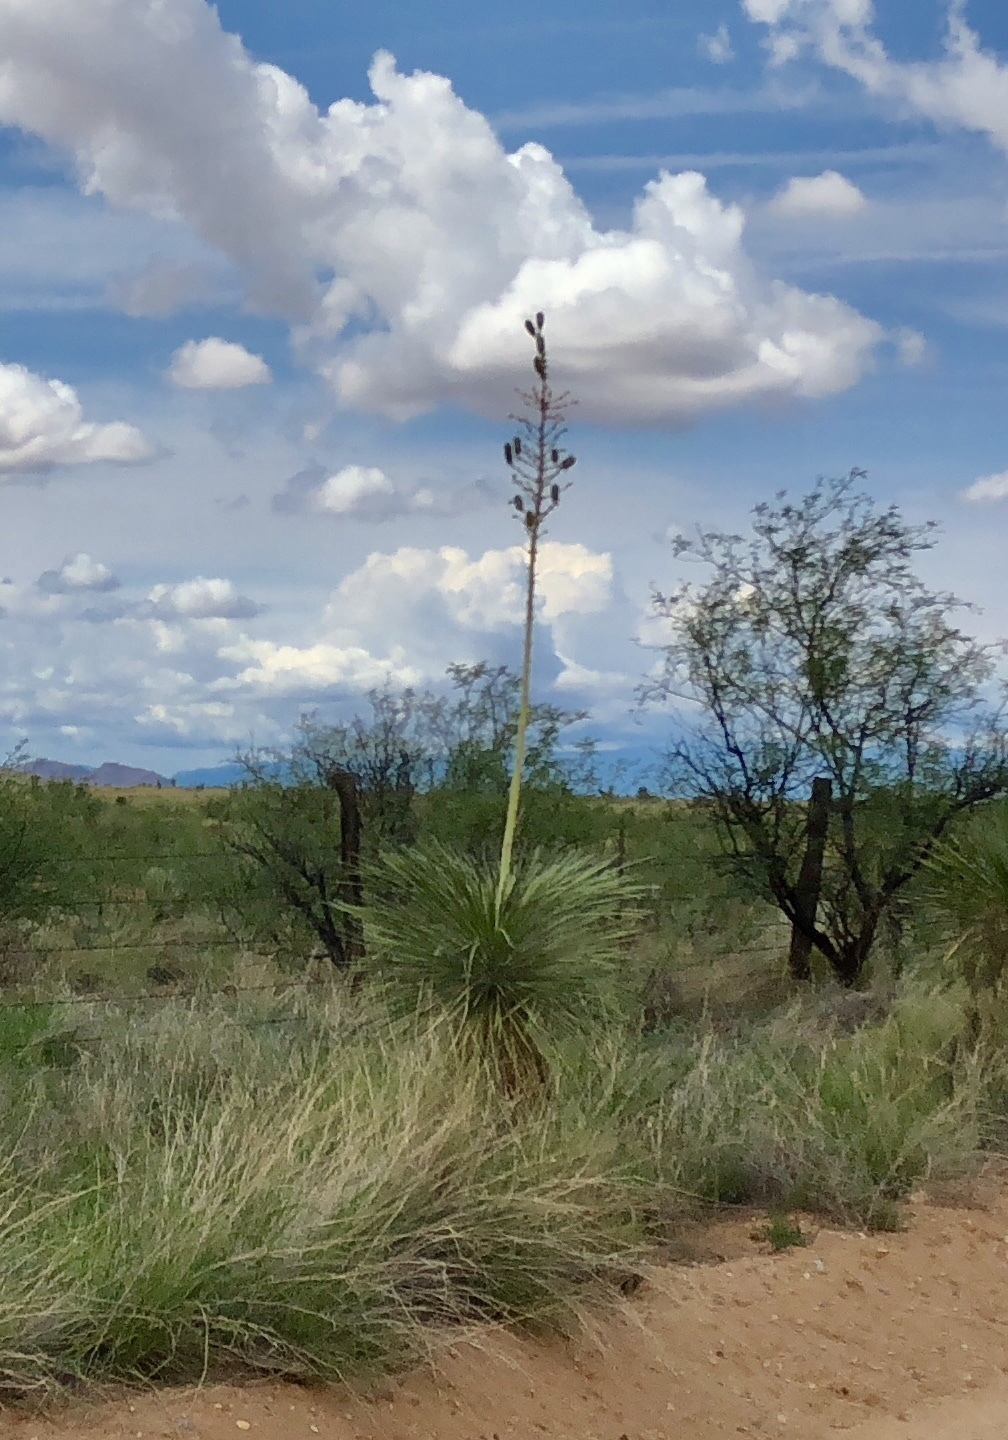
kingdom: Plantae
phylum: Tracheophyta
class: Liliopsida
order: Asparagales
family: Asparagaceae
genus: Yucca
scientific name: Yucca elata
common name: Palmella
